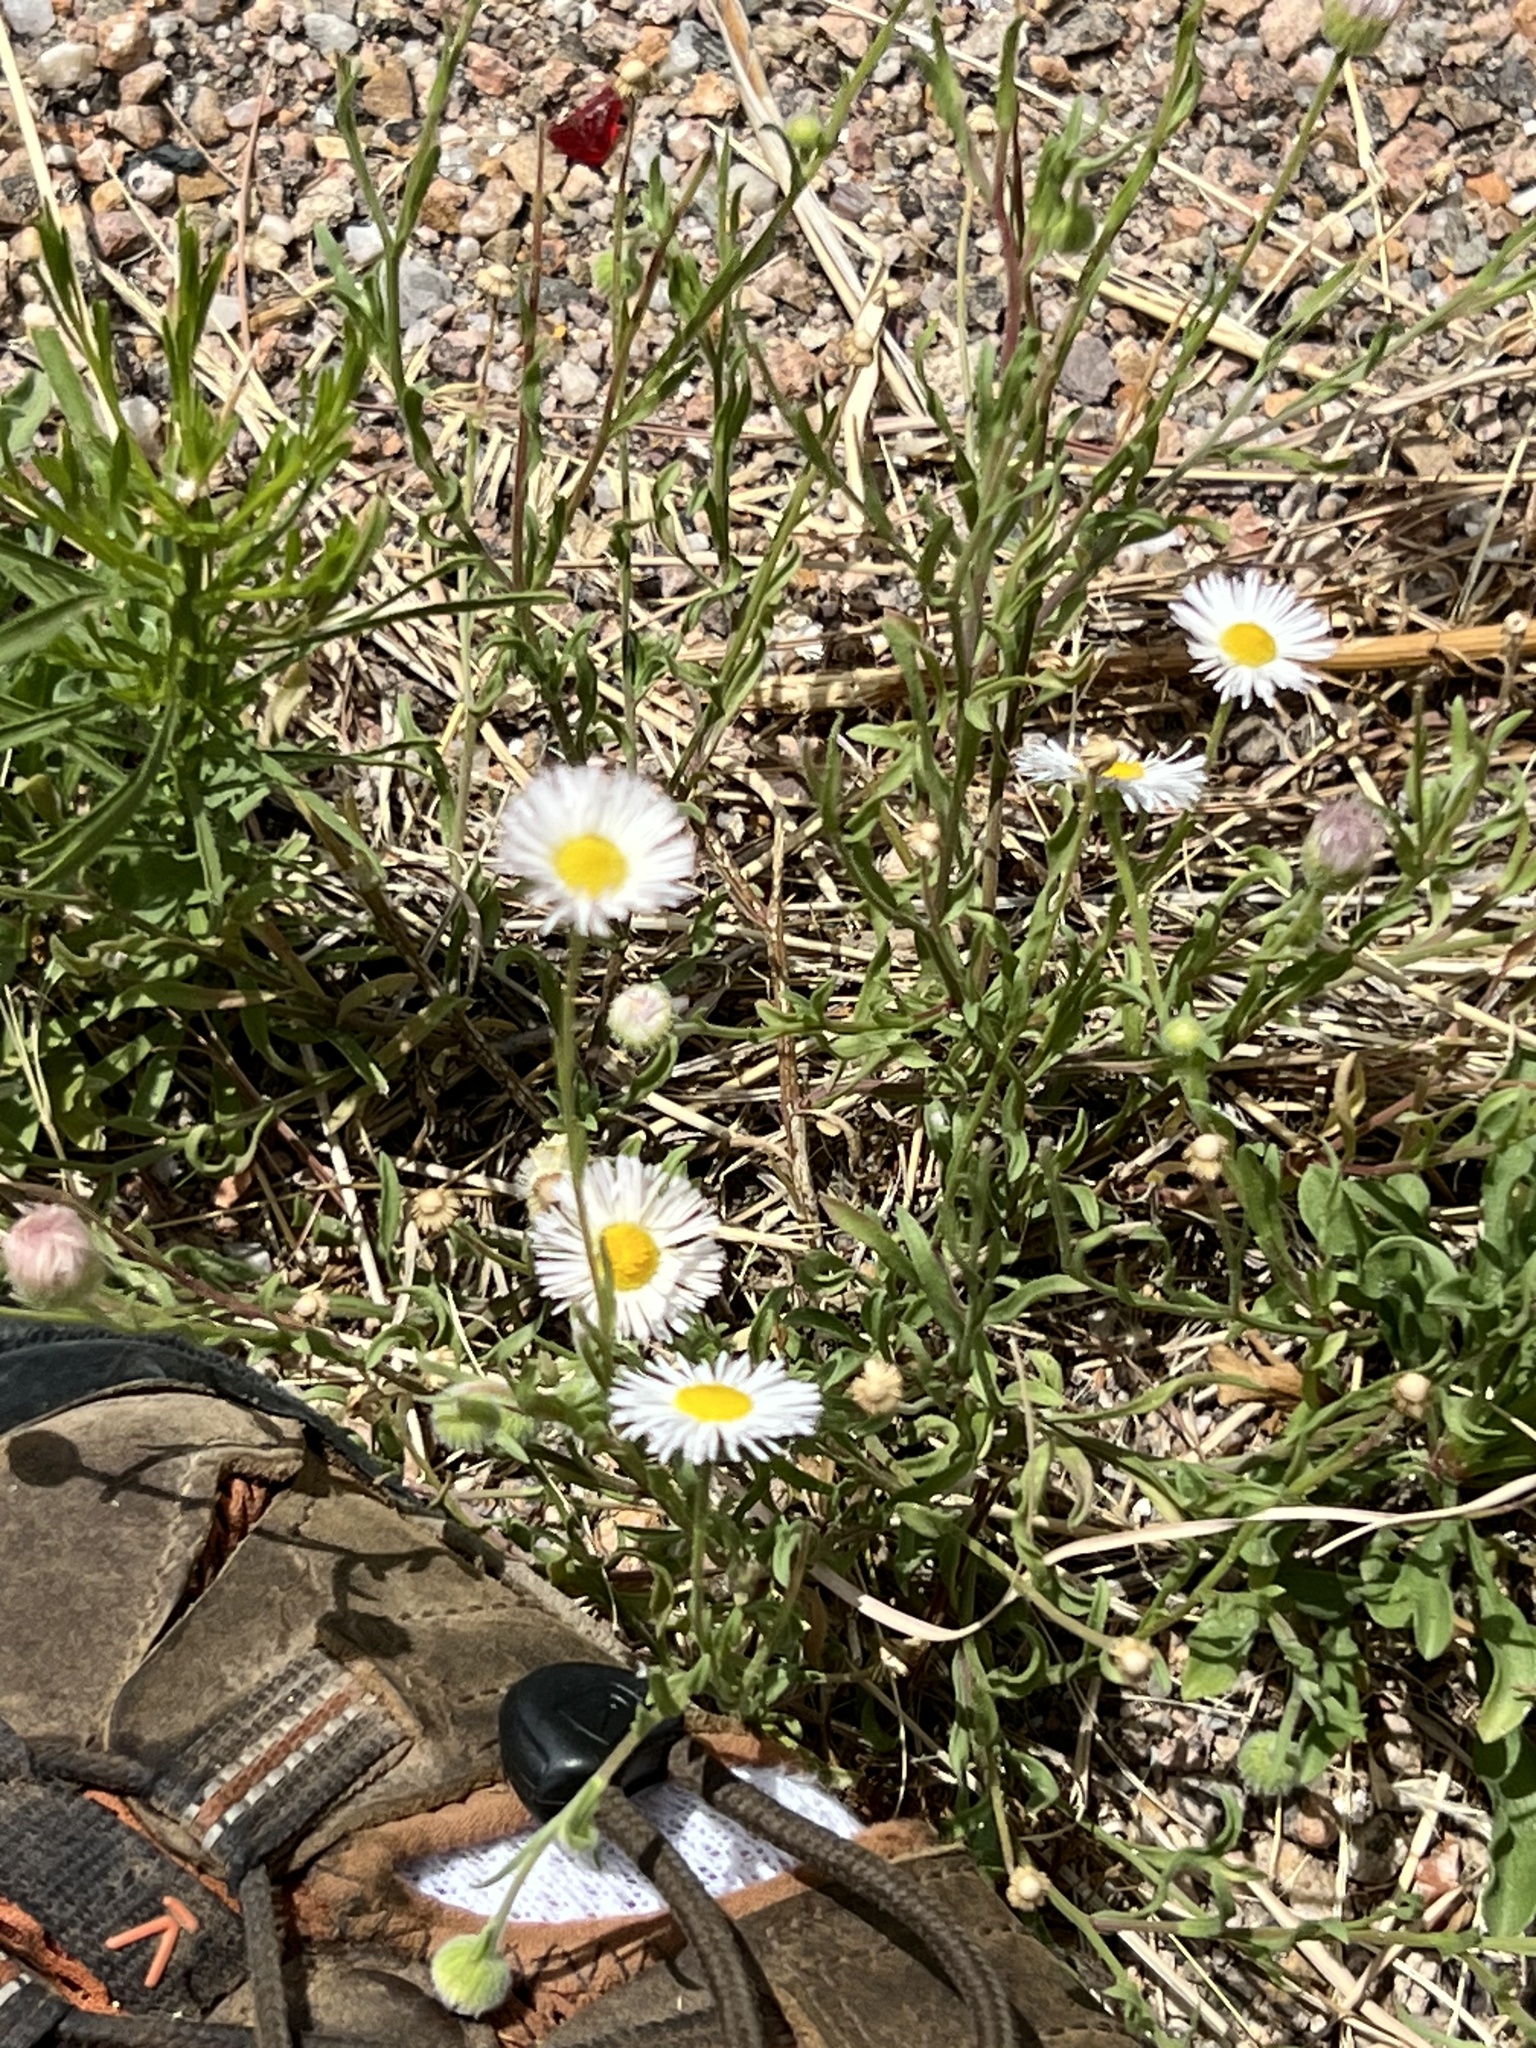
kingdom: Plantae
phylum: Tracheophyta
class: Magnoliopsida
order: Asterales
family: Asteraceae
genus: Erigeron
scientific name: Erigeron divergens
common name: Diffuse fleabane
